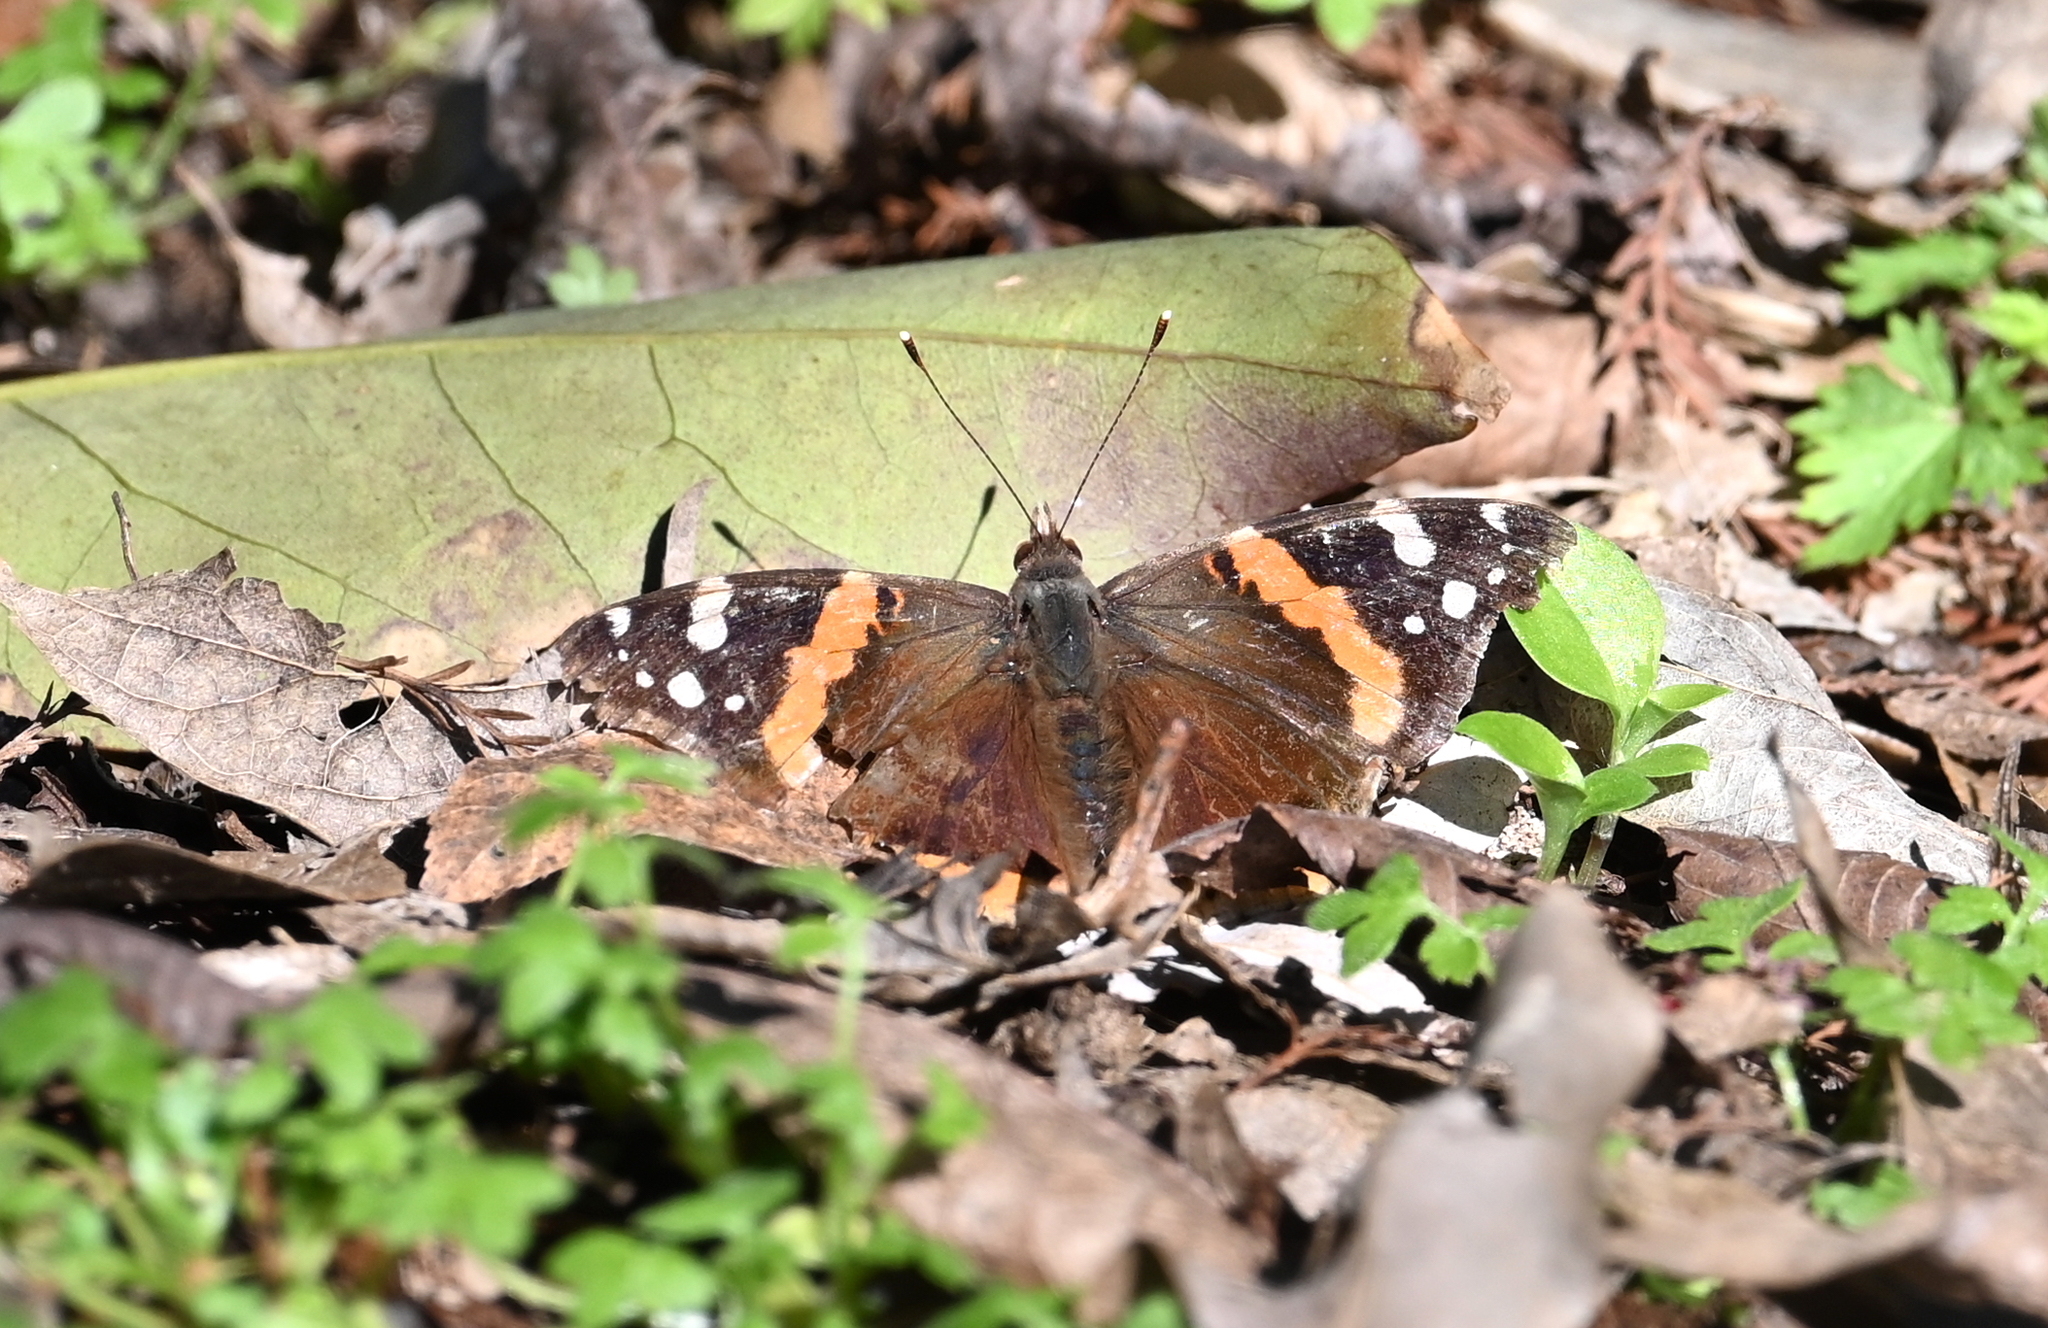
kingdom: Animalia
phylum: Arthropoda
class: Insecta
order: Lepidoptera
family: Nymphalidae
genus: Vanessa
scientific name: Vanessa atalanta
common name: Red admiral
